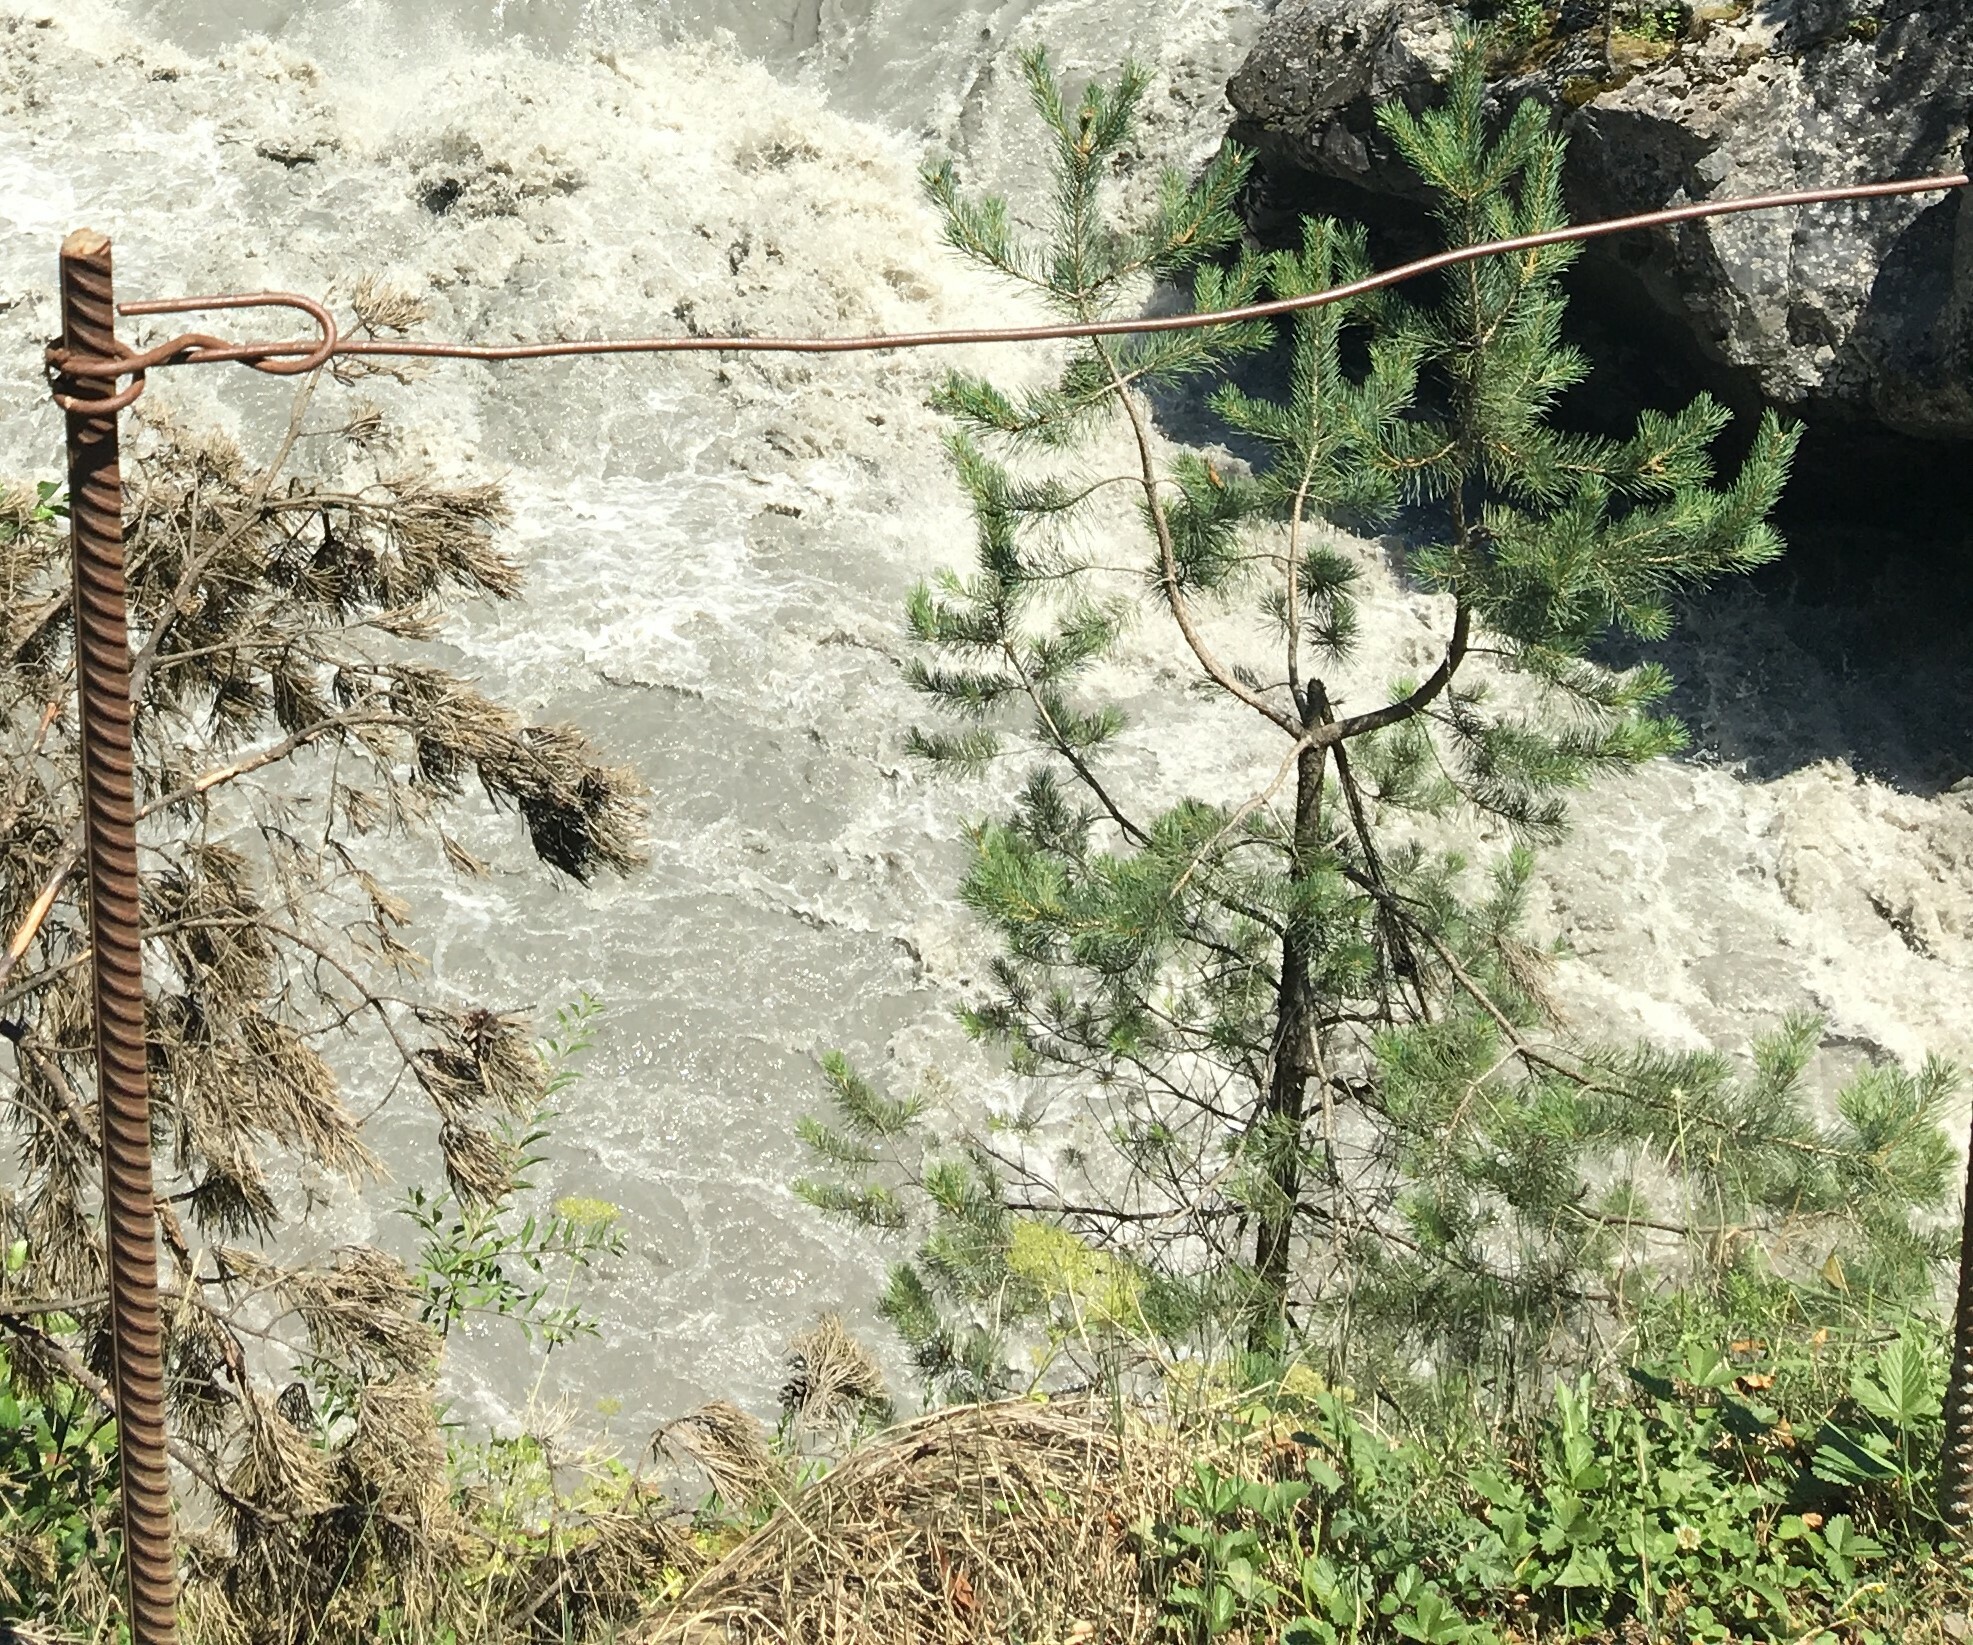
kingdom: Plantae
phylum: Tracheophyta
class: Pinopsida
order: Pinales
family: Pinaceae
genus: Pinus
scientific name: Pinus sylvestris
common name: Scots pine
